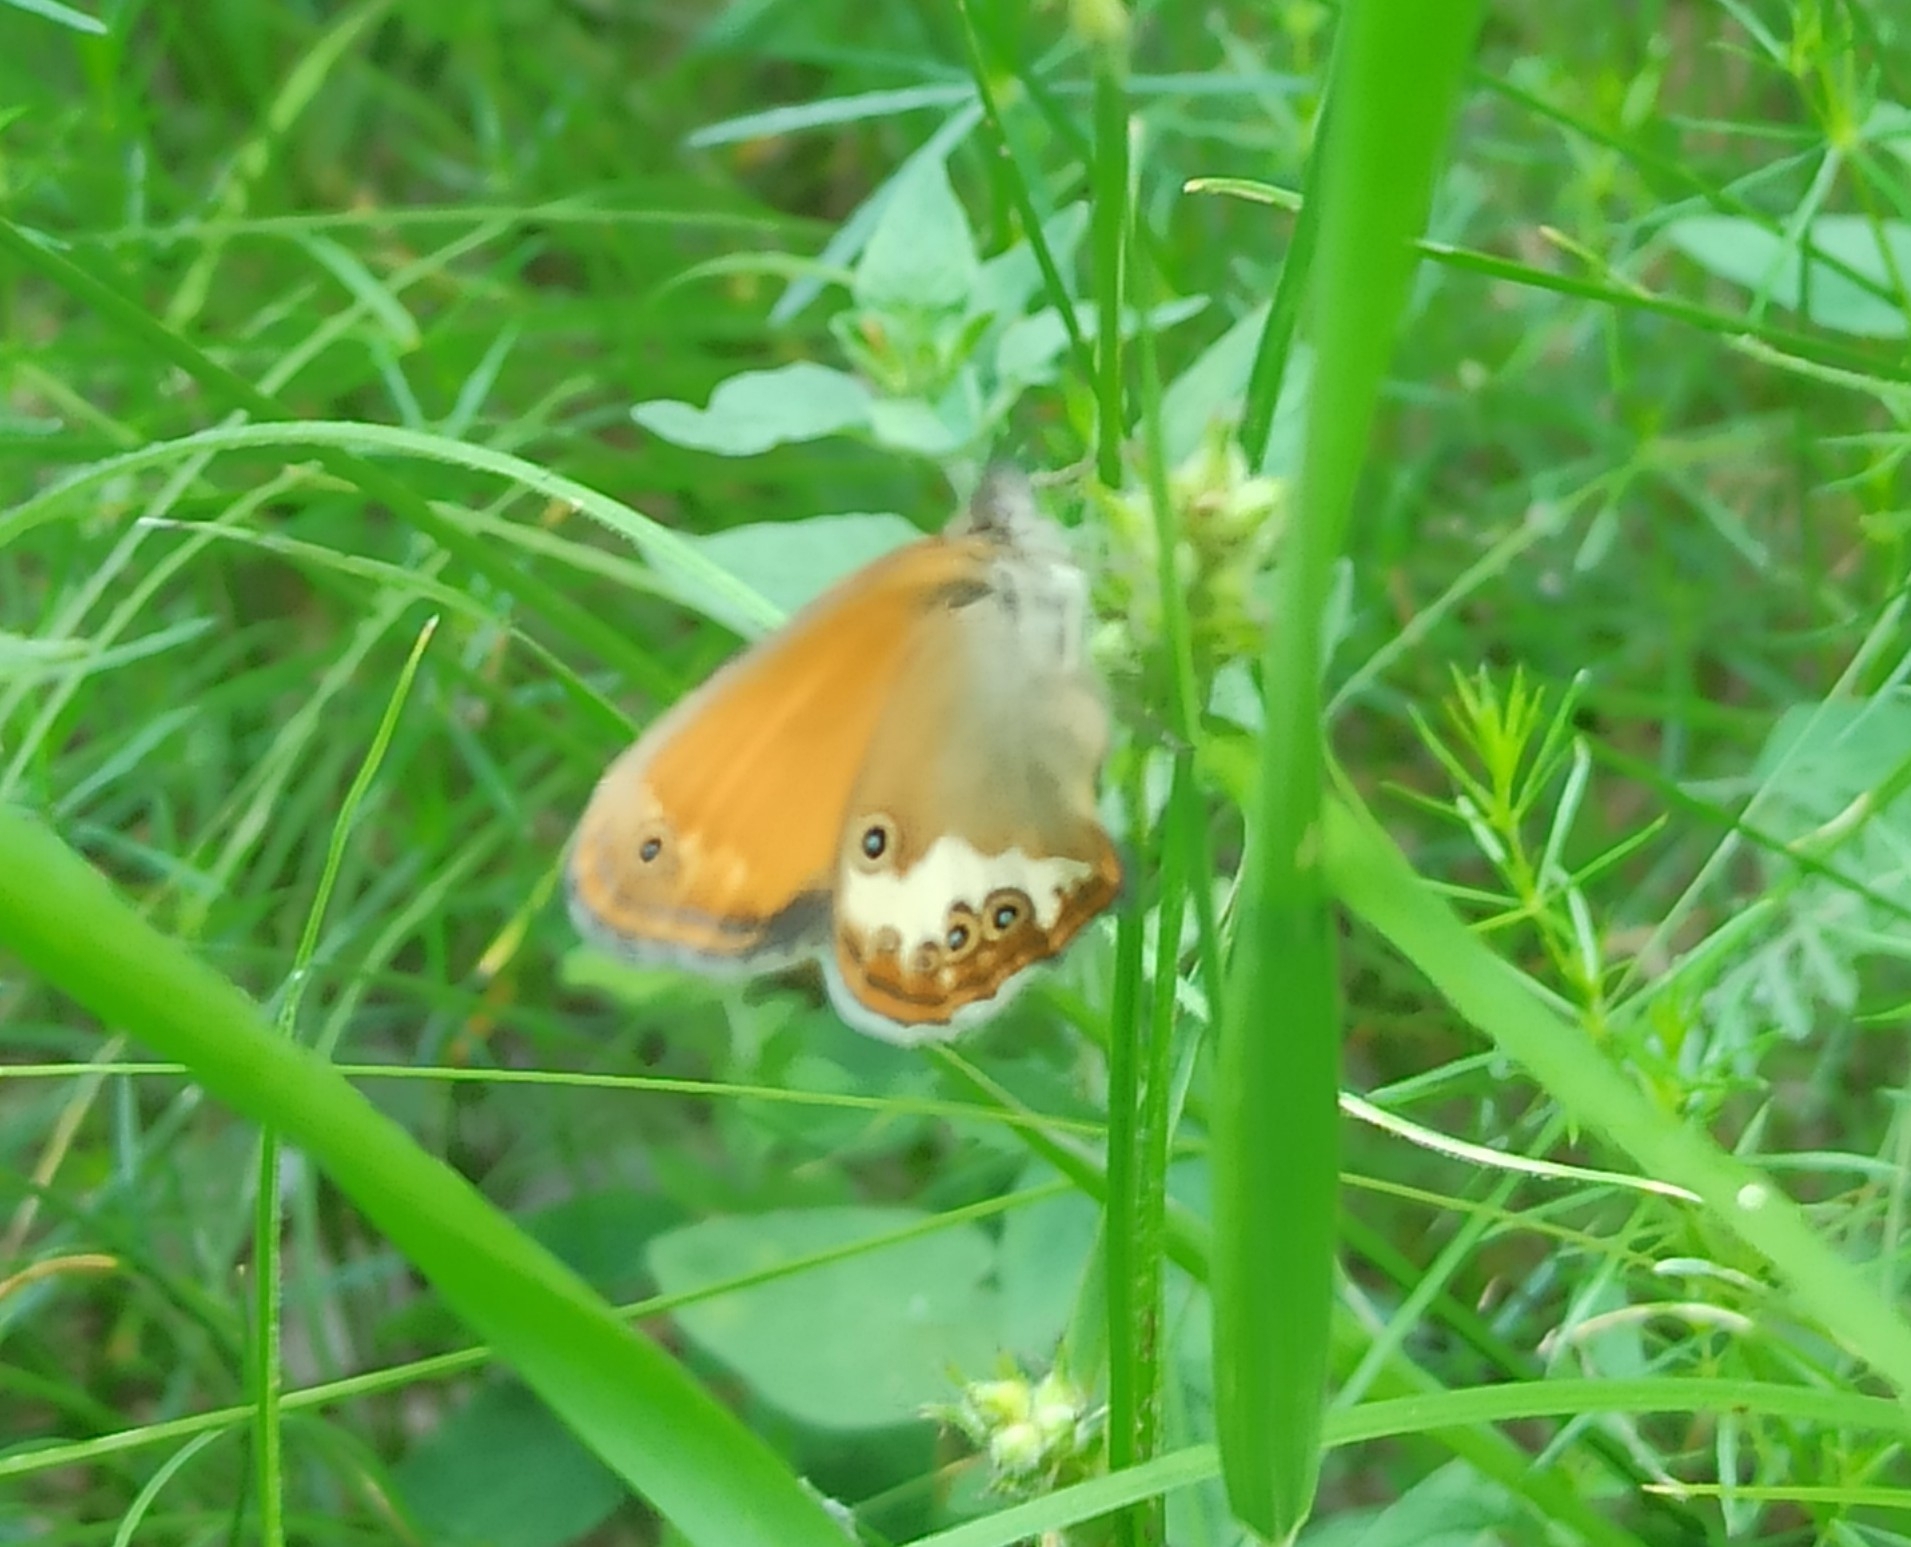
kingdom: Animalia
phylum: Arthropoda
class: Insecta
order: Lepidoptera
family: Nymphalidae
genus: Coenonympha
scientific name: Coenonympha arcania
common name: Pearly heath
